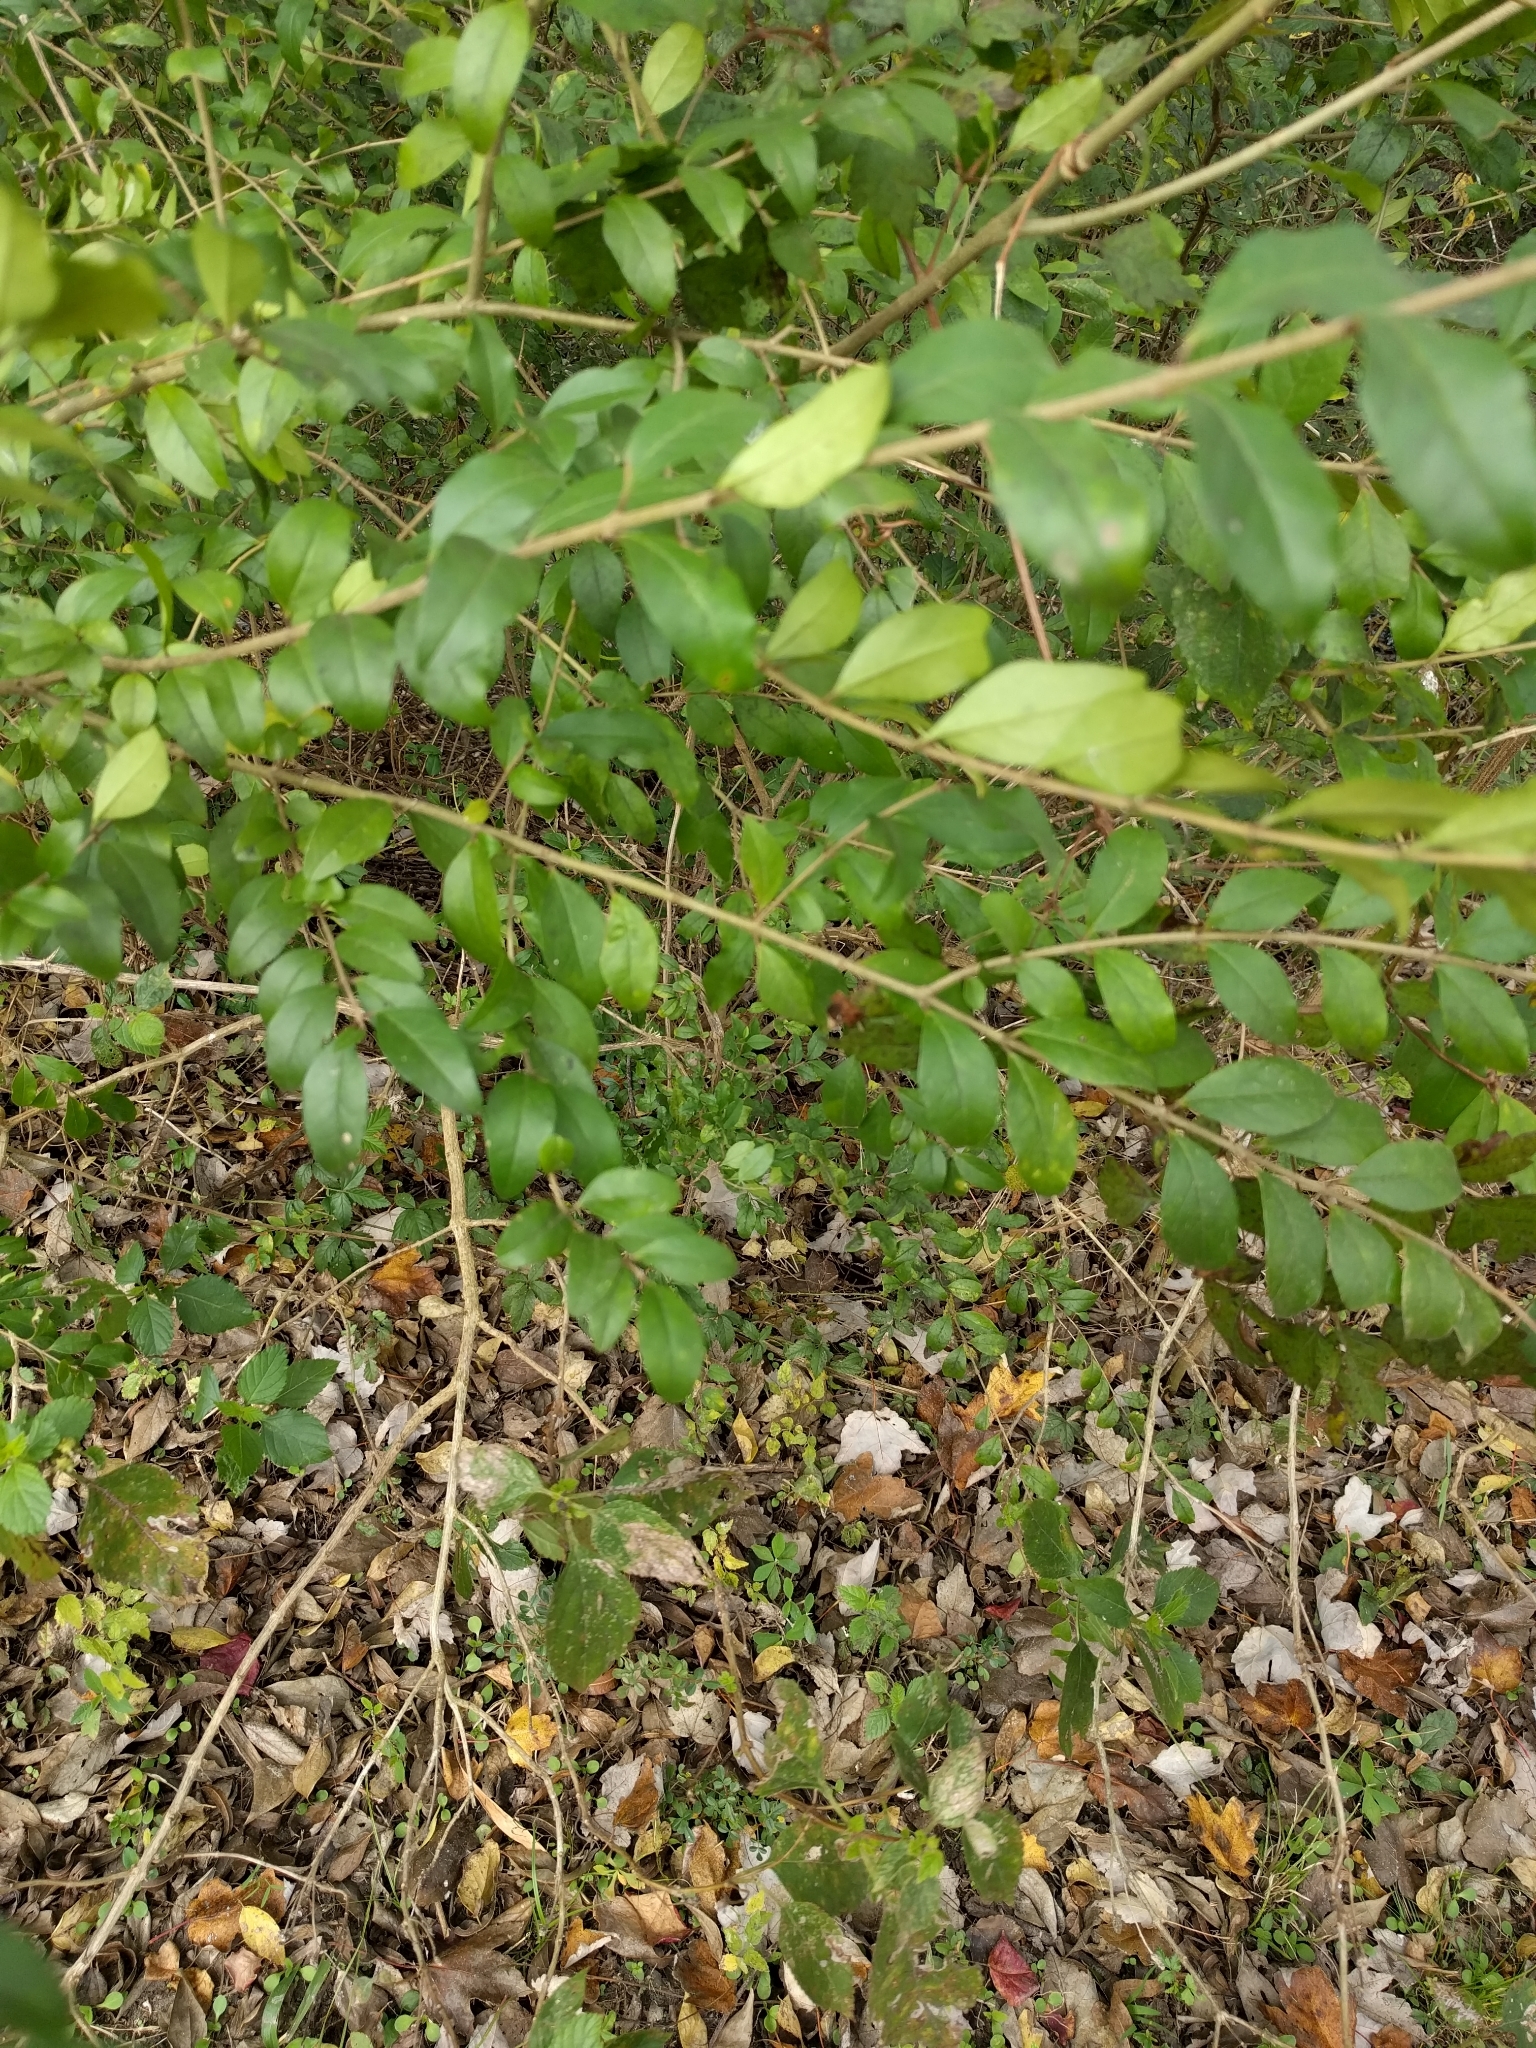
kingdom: Plantae
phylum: Tracheophyta
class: Magnoliopsida
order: Lamiales
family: Oleaceae
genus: Ligustrum
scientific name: Ligustrum sinense
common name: Chinese privet
